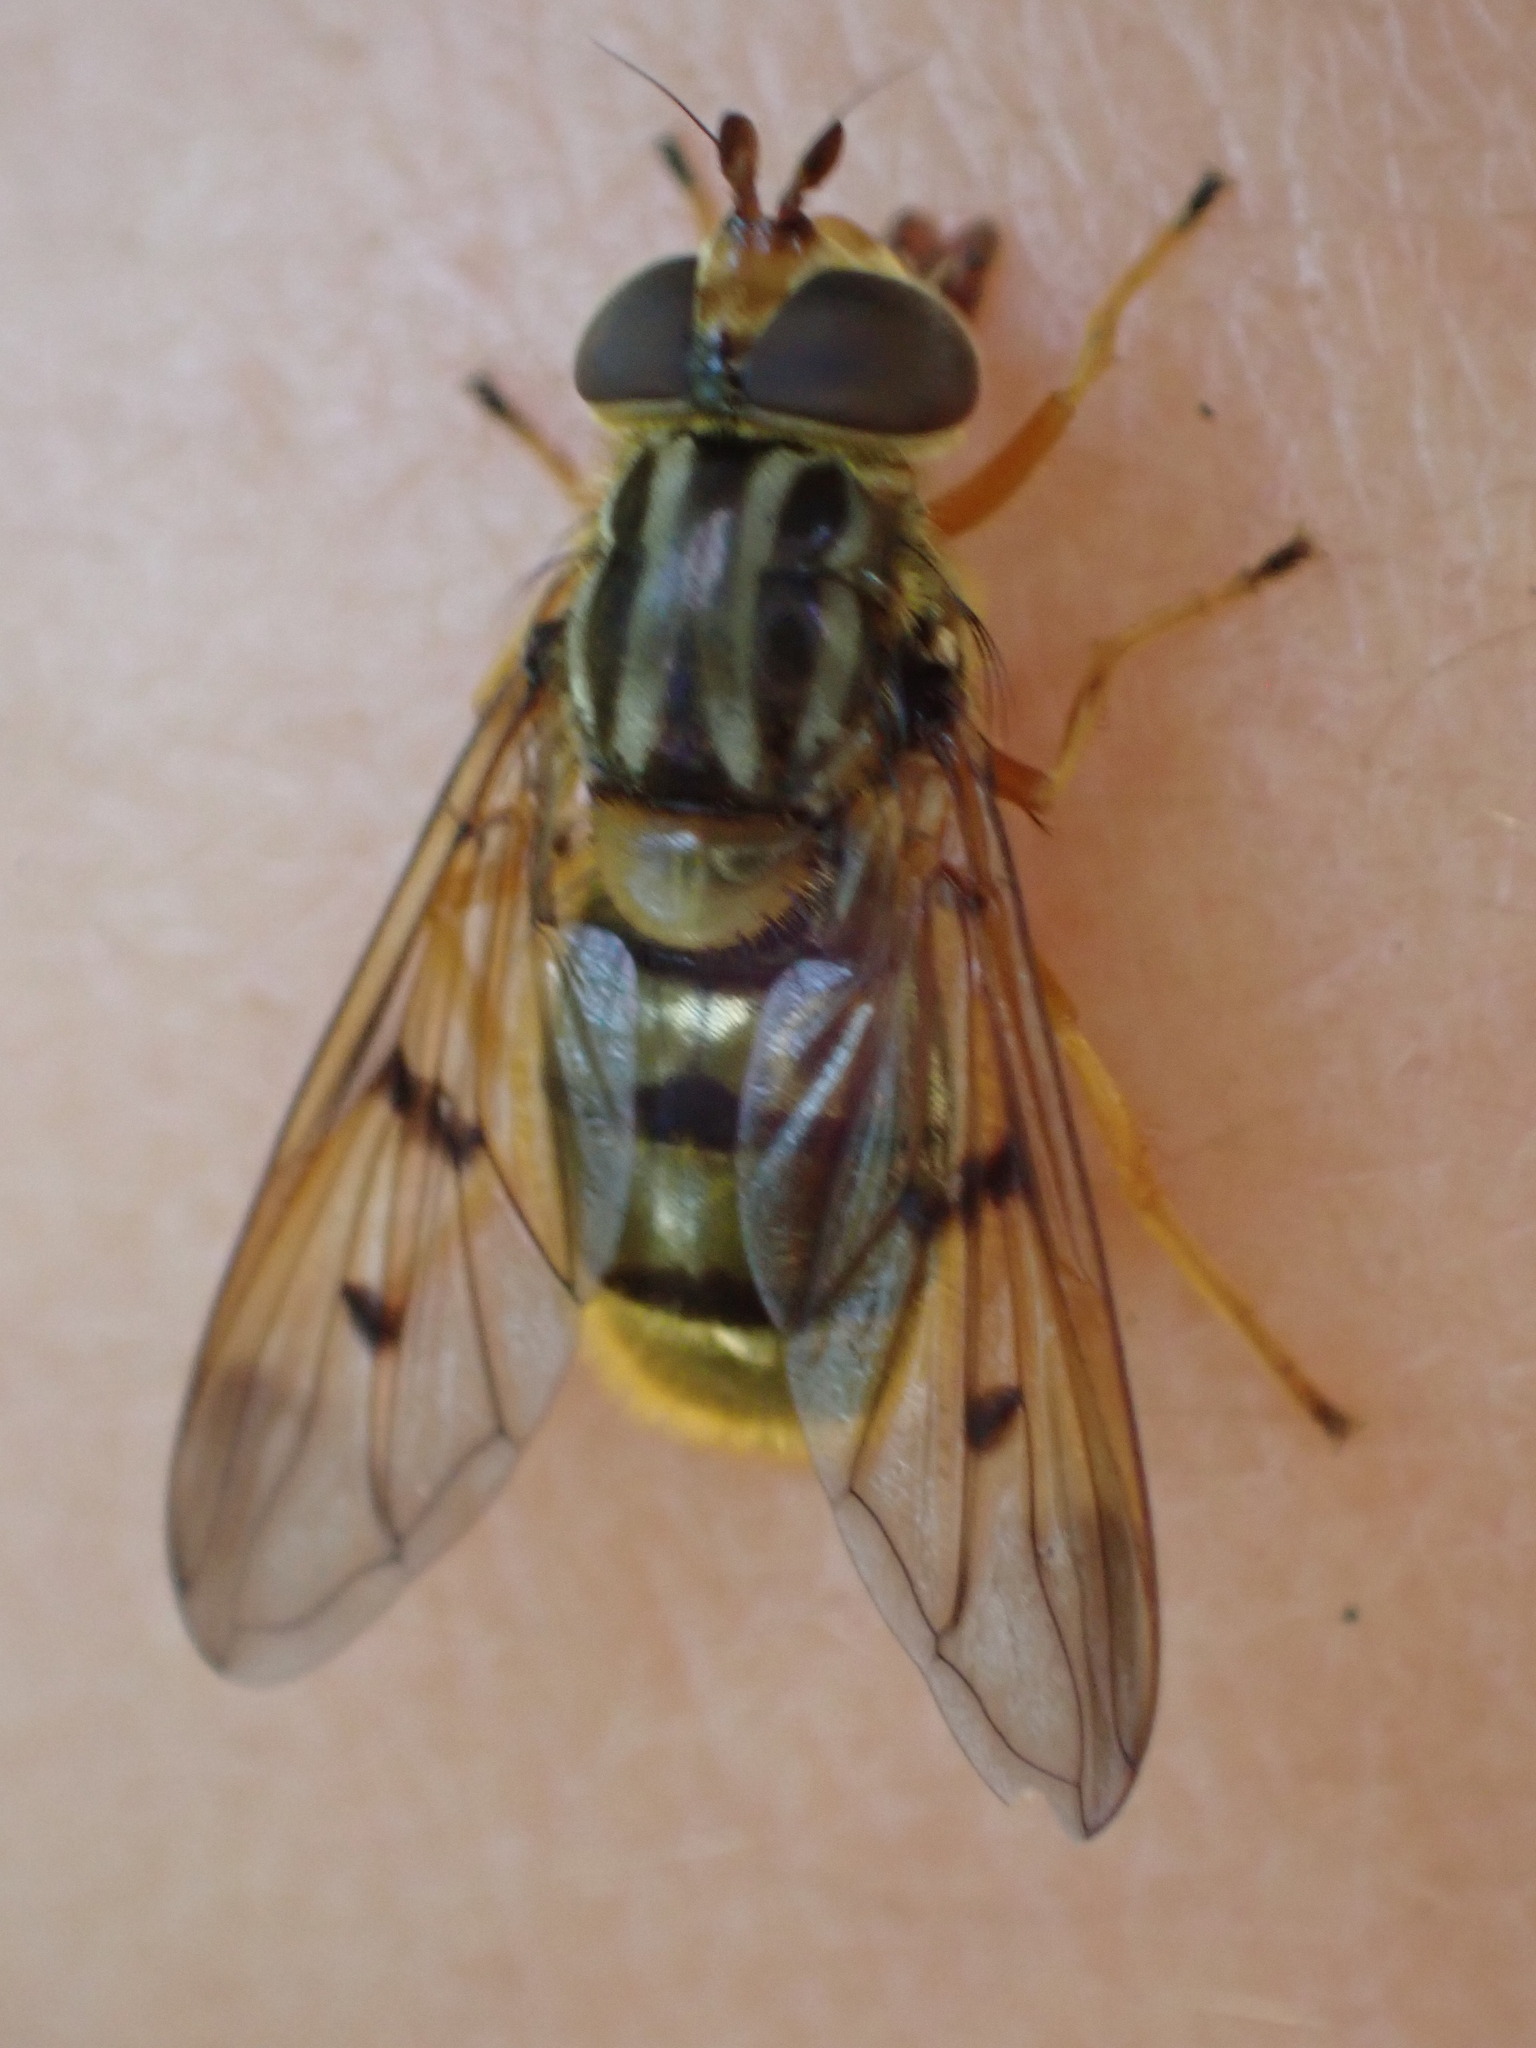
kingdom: Animalia
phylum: Arthropoda
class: Insecta
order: Diptera
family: Syrphidae
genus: Ferdinandea
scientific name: Ferdinandea cuprea
